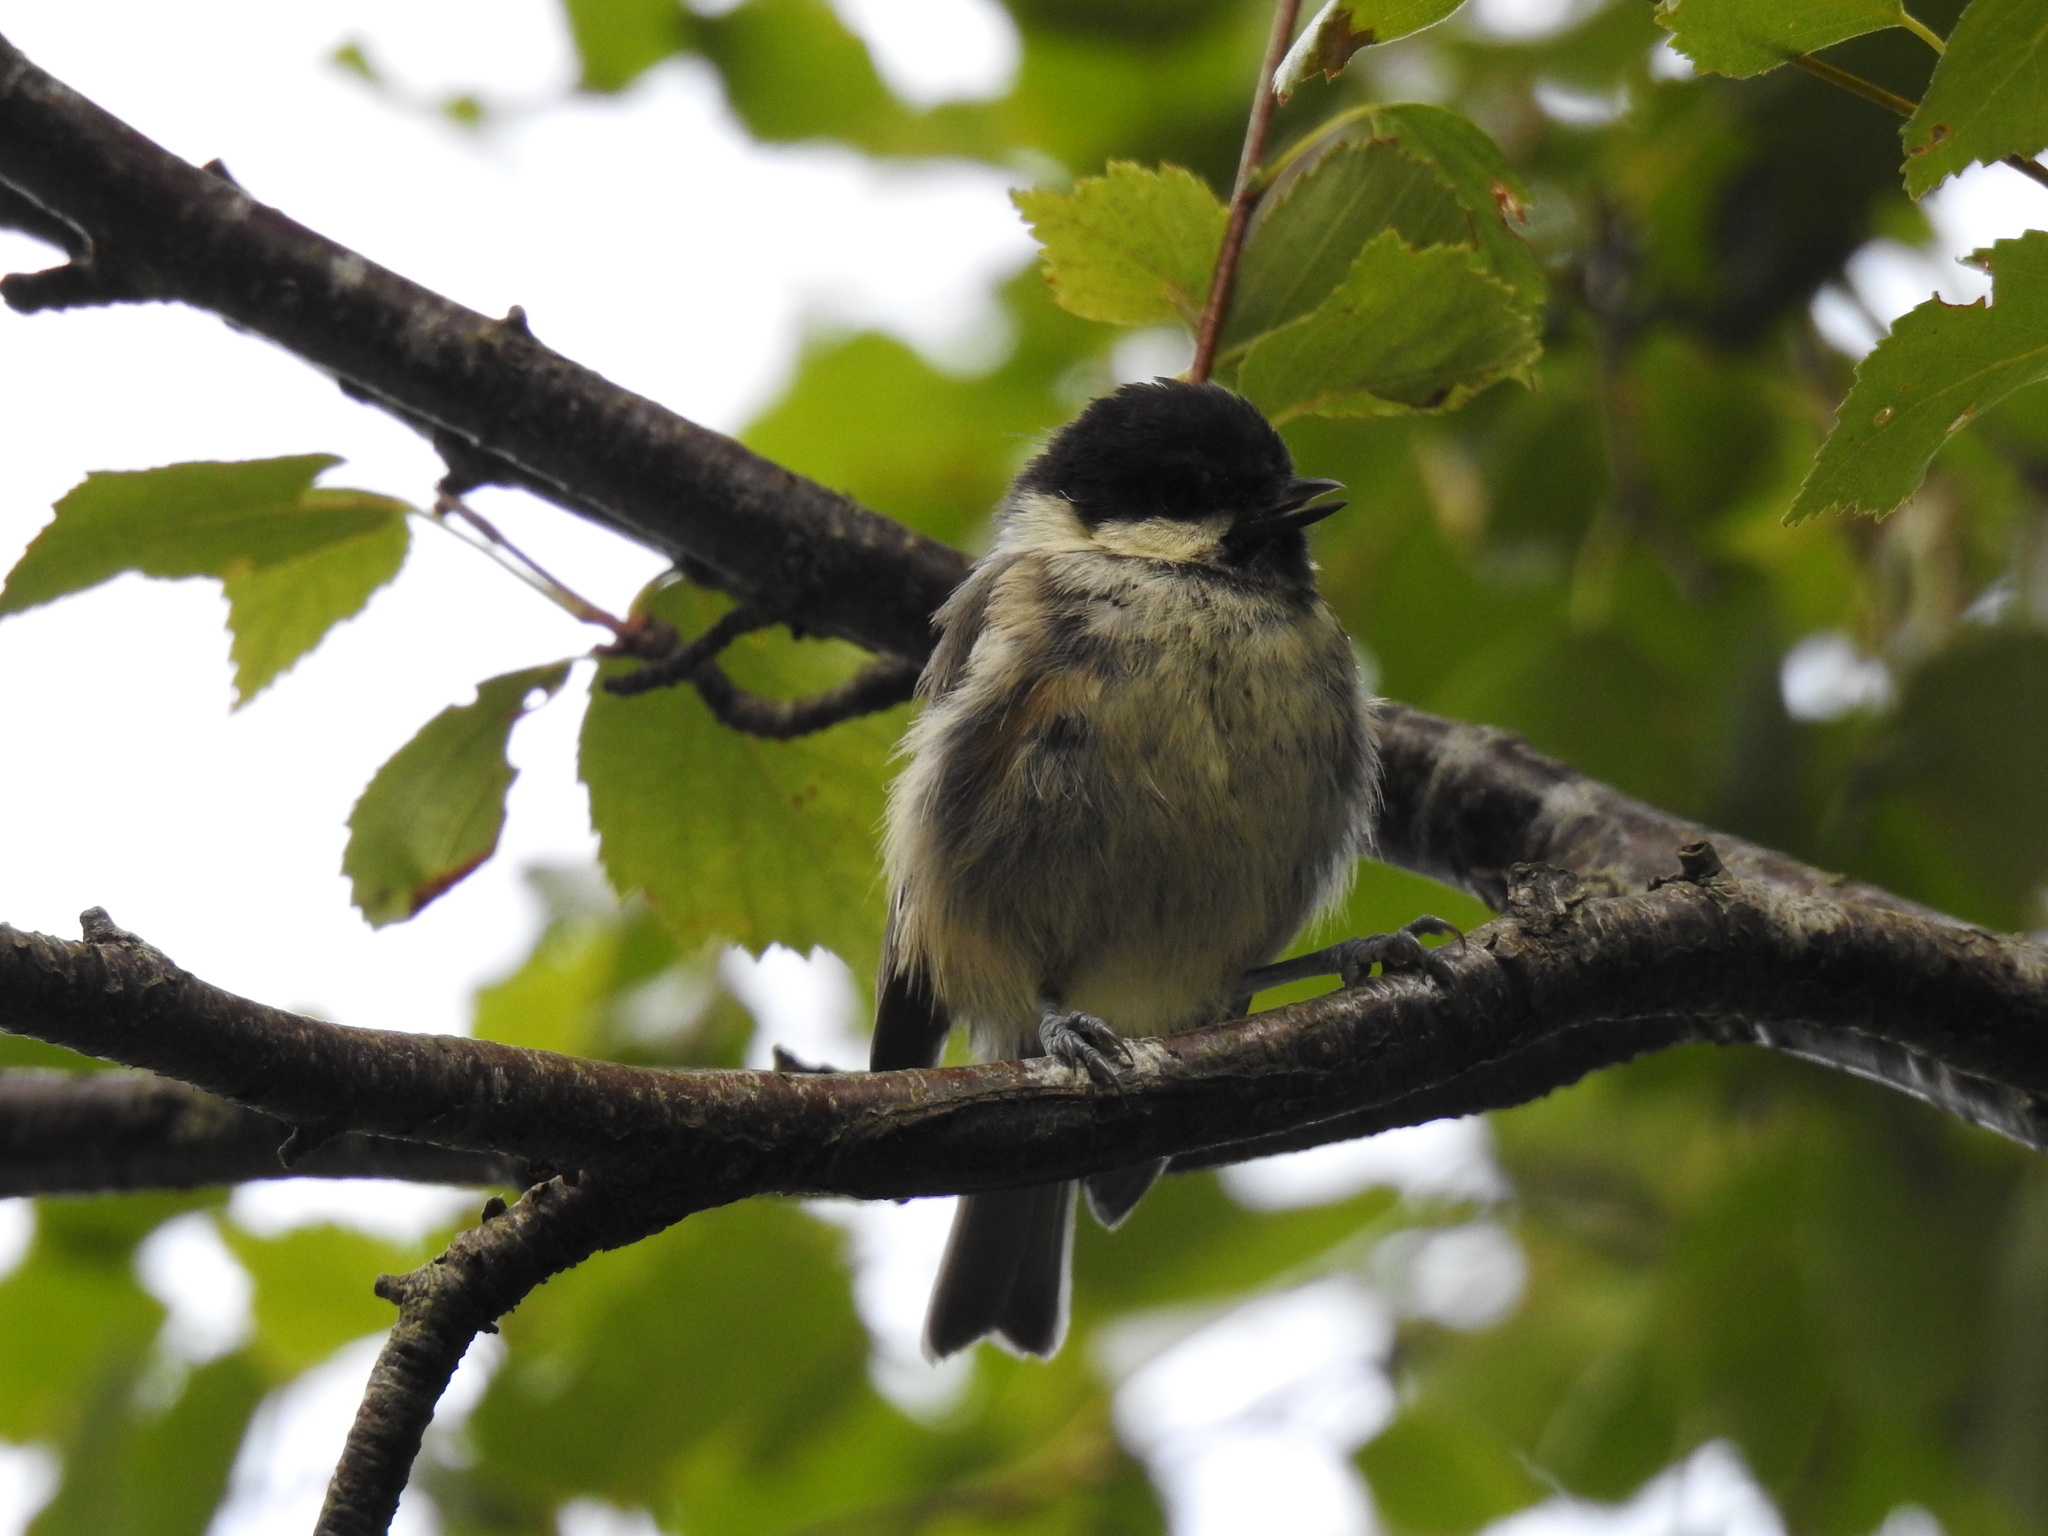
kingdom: Animalia
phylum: Chordata
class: Aves
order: Passeriformes
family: Paridae
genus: Periparus
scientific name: Periparus ater
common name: Coal tit
